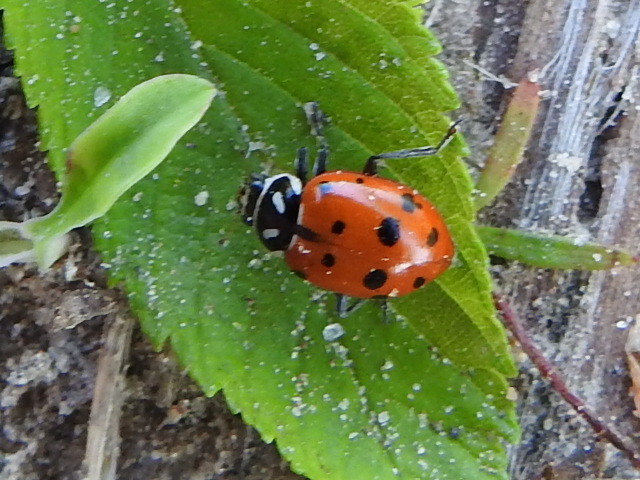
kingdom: Animalia
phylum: Arthropoda
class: Insecta
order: Coleoptera
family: Coccinellidae
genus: Hippodamia
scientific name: Hippodamia convergens
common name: Convergent lady beetle
